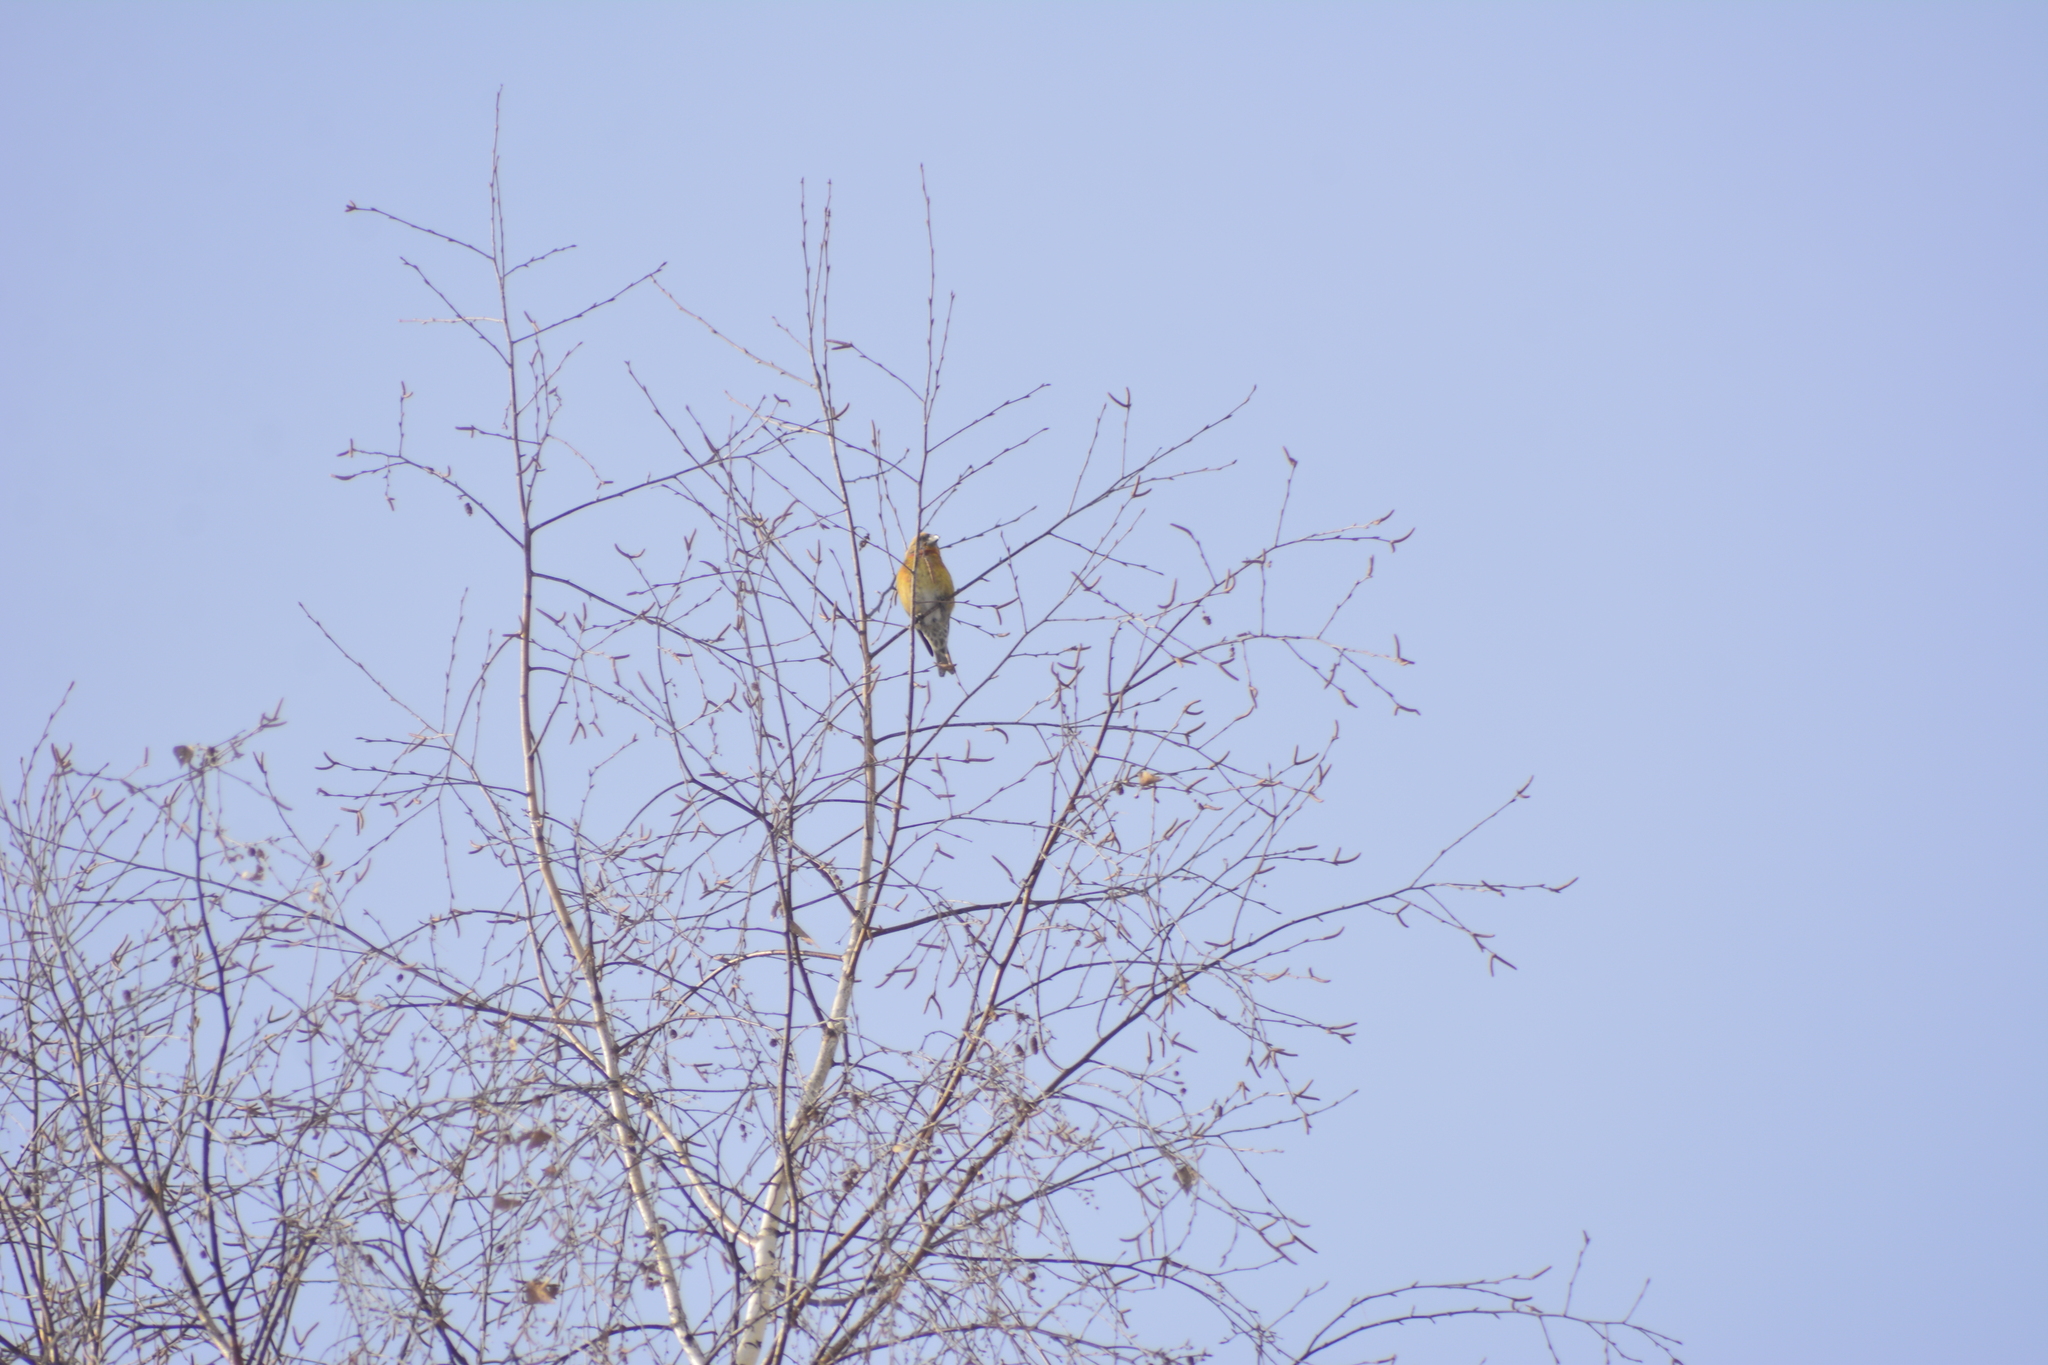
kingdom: Plantae
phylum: Tracheophyta
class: Liliopsida
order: Poales
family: Poaceae
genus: Chloris
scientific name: Chloris chloris
